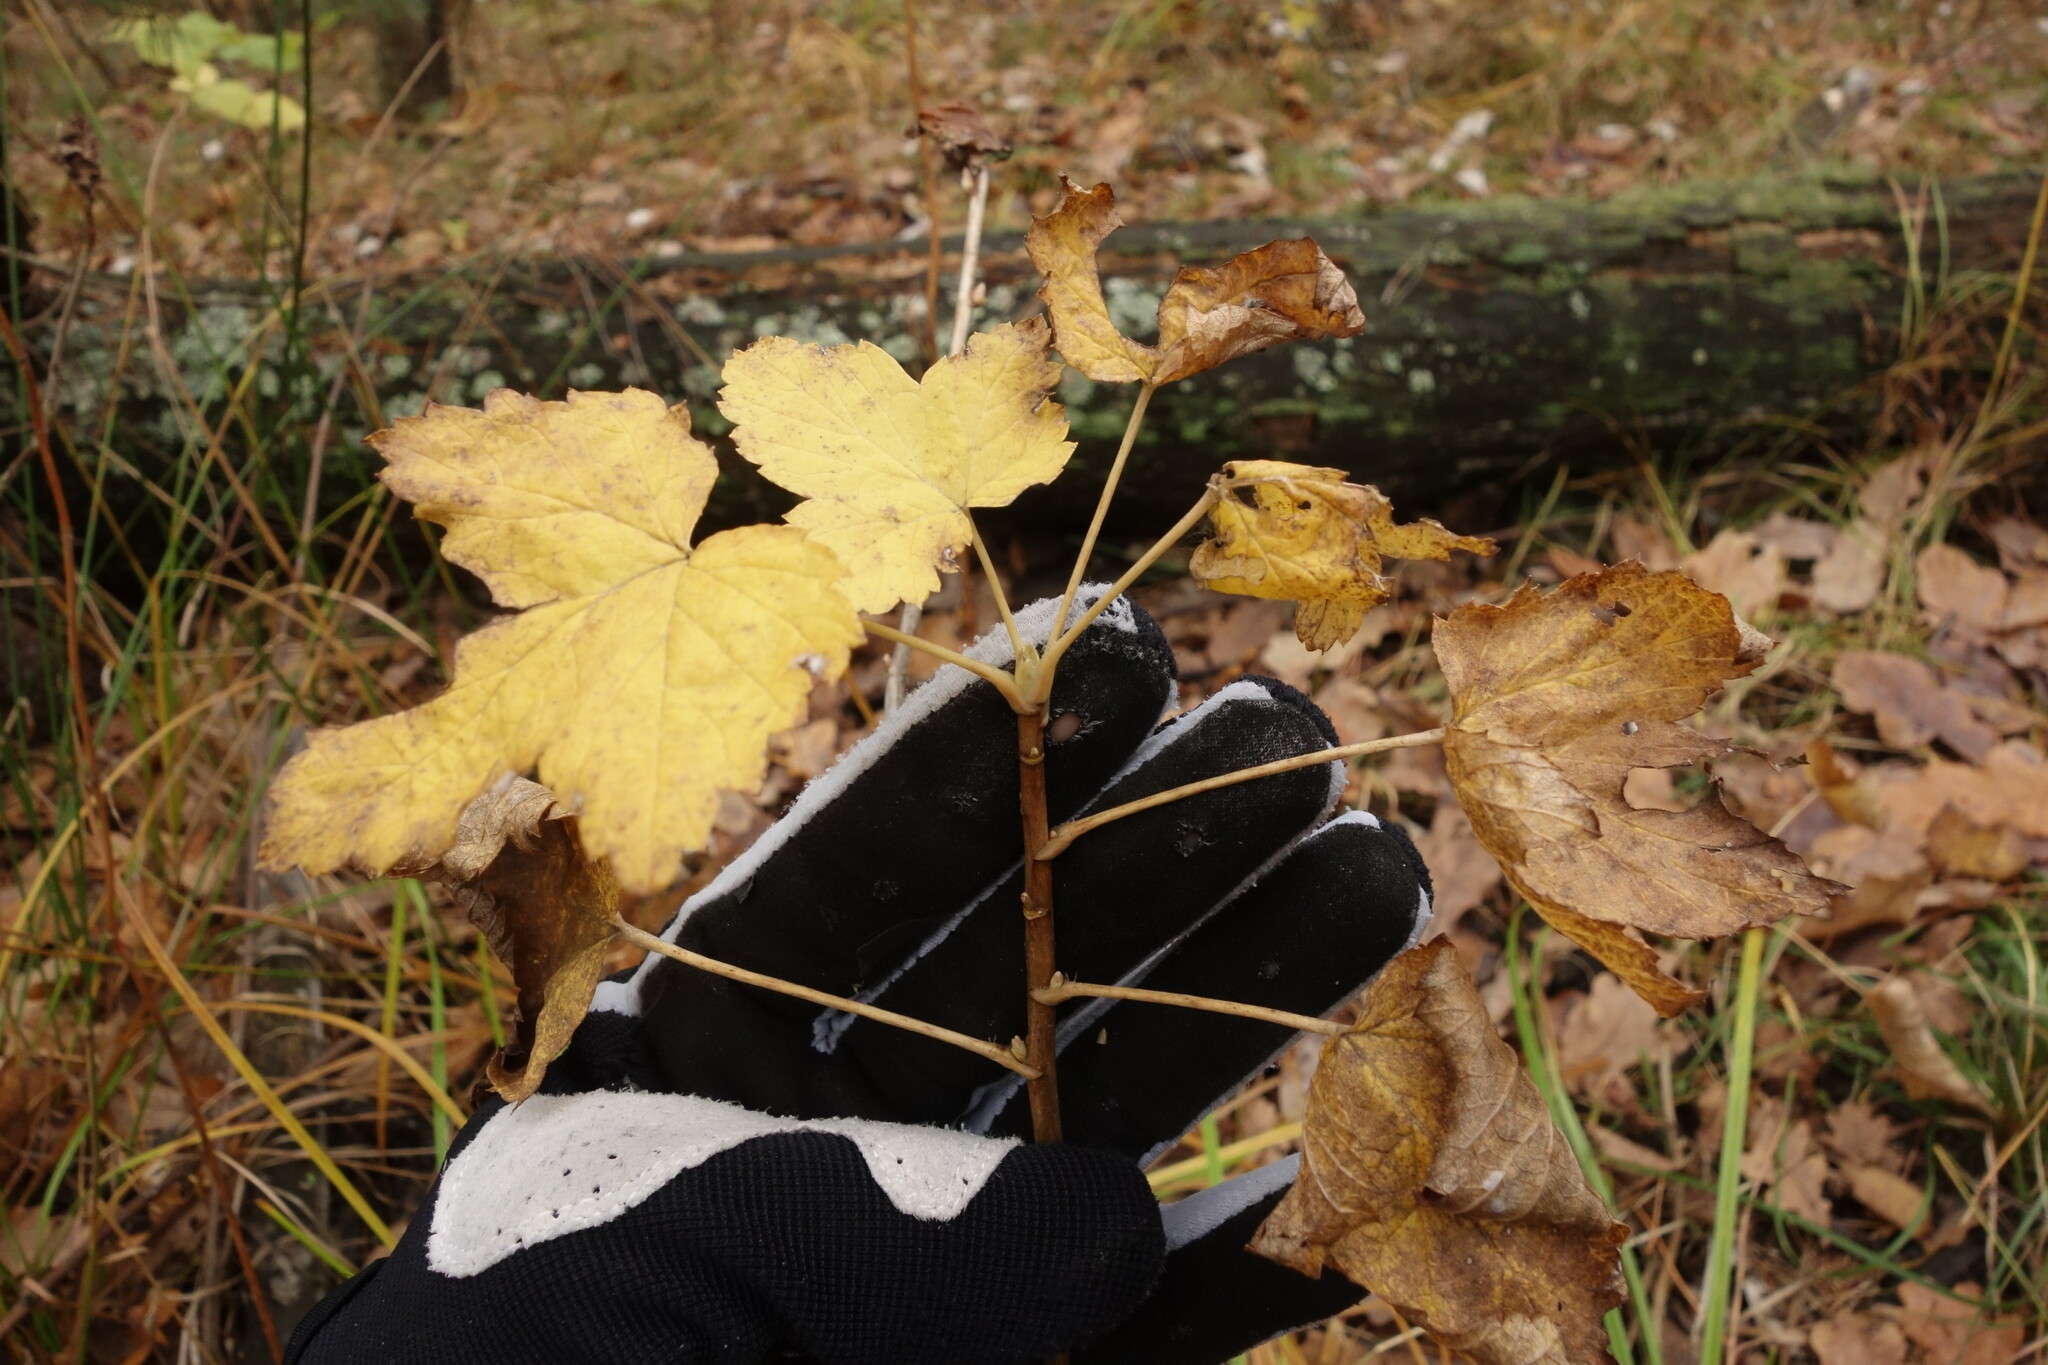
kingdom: Plantae
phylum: Tracheophyta
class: Magnoliopsida
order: Saxifragales
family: Grossulariaceae
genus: Ribes
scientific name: Ribes nigrum
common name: Black currant
